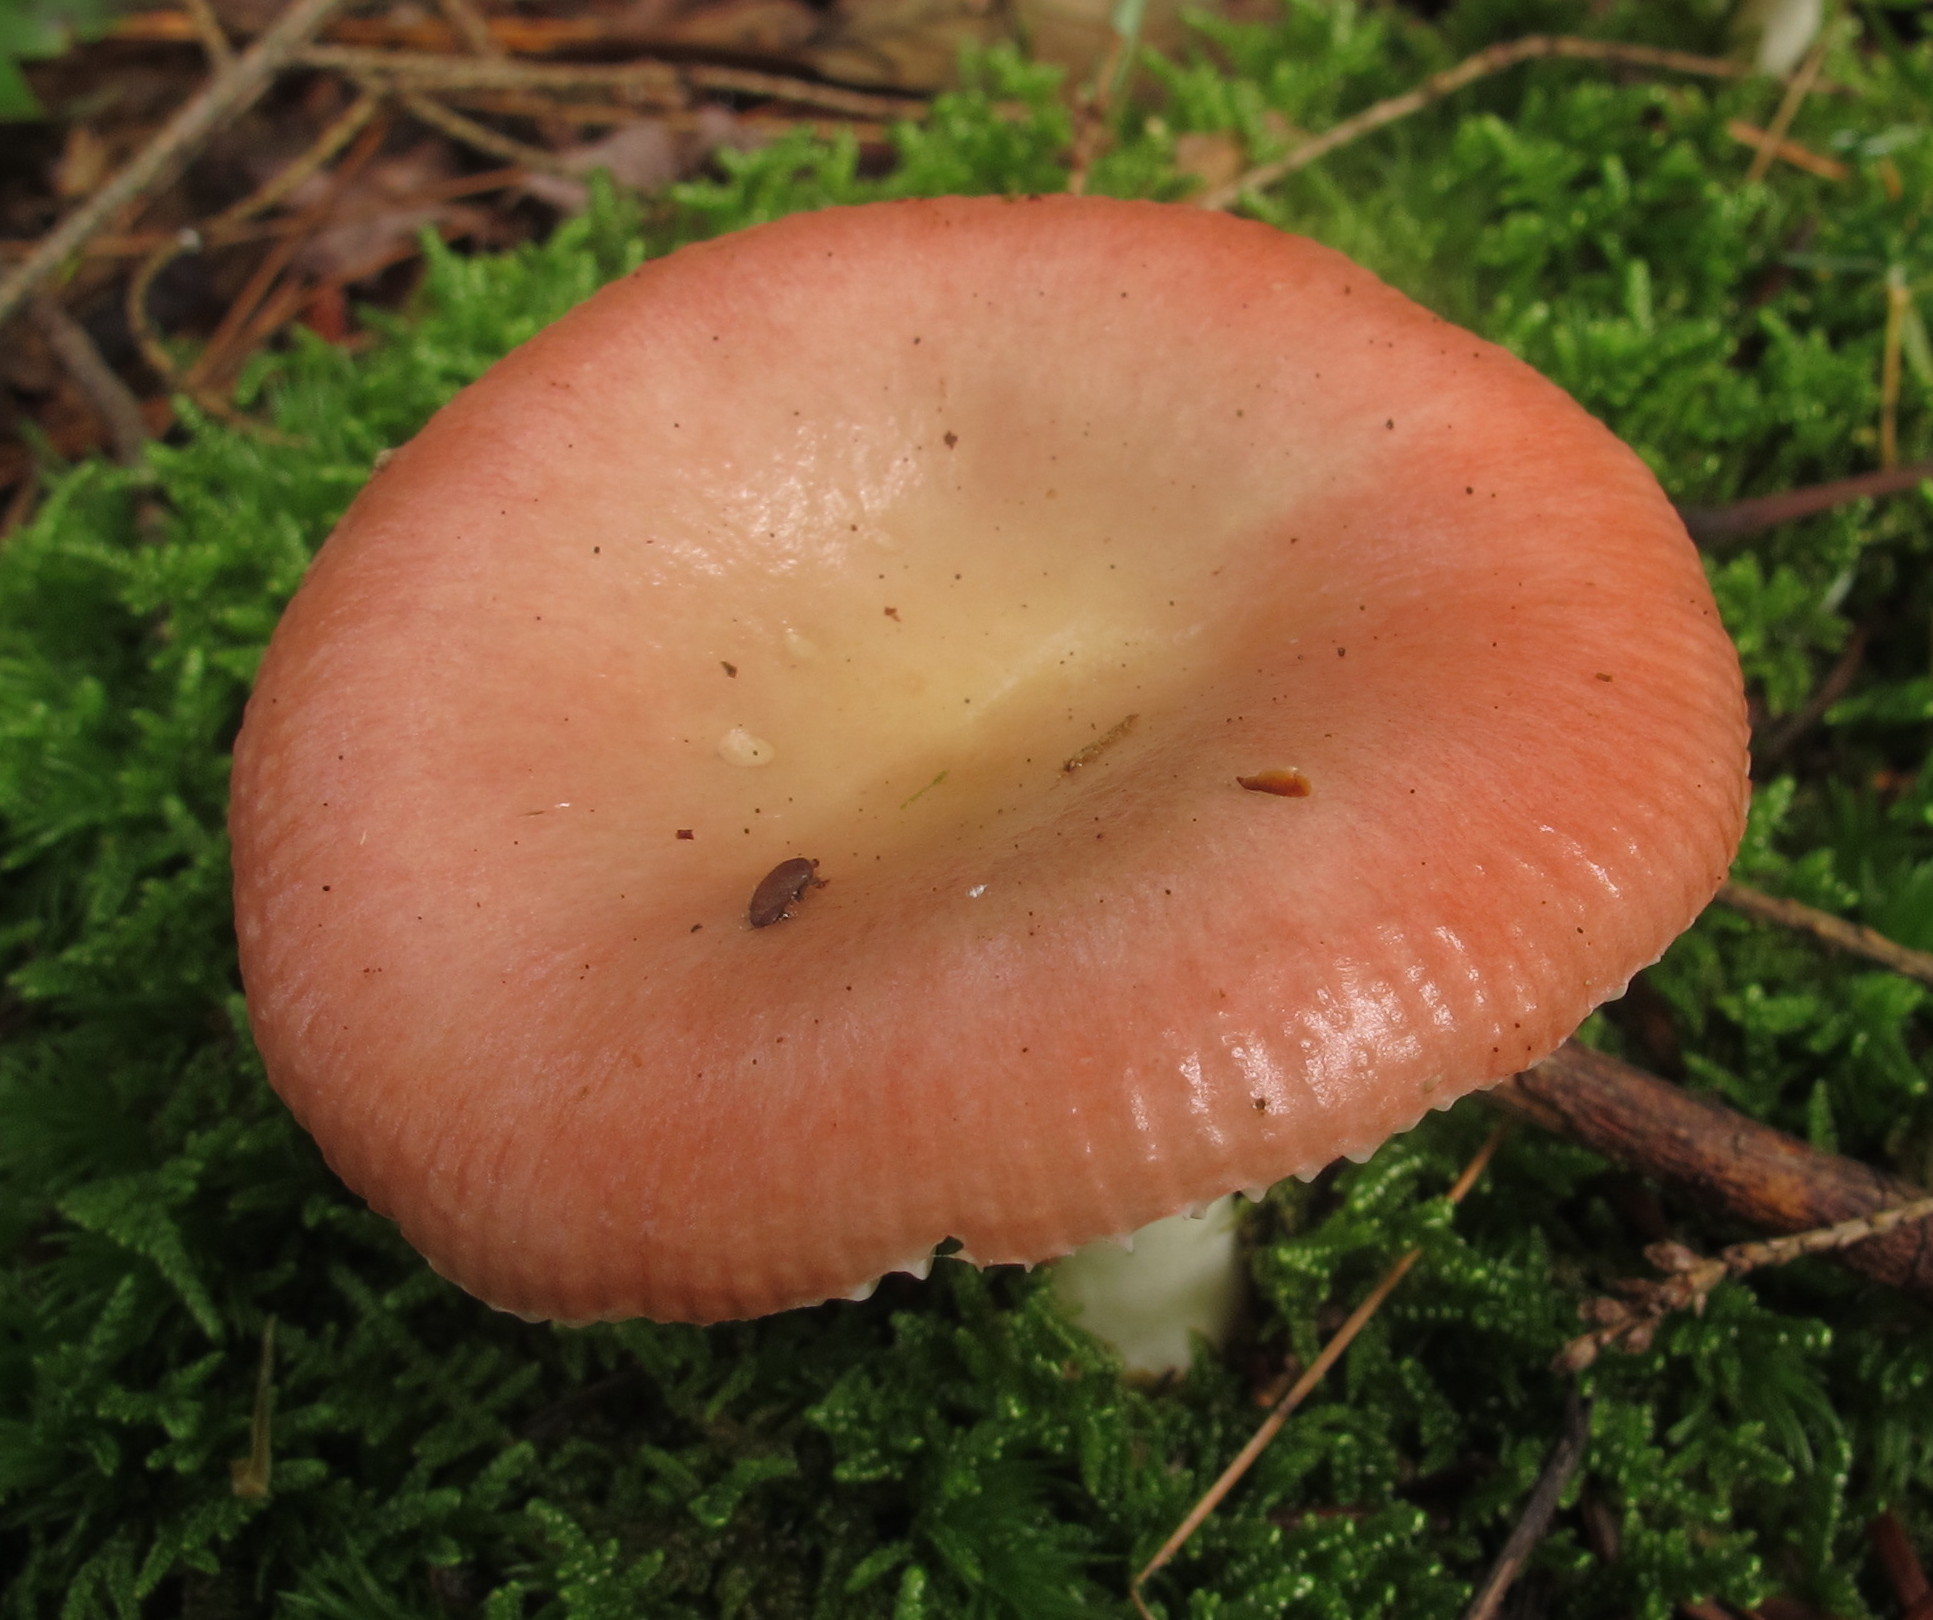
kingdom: Fungi
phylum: Basidiomycota
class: Agaricomycetes
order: Russulales
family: Russulaceae
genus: Russula
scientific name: Russula aquosa
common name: Red swamp brittlegill
